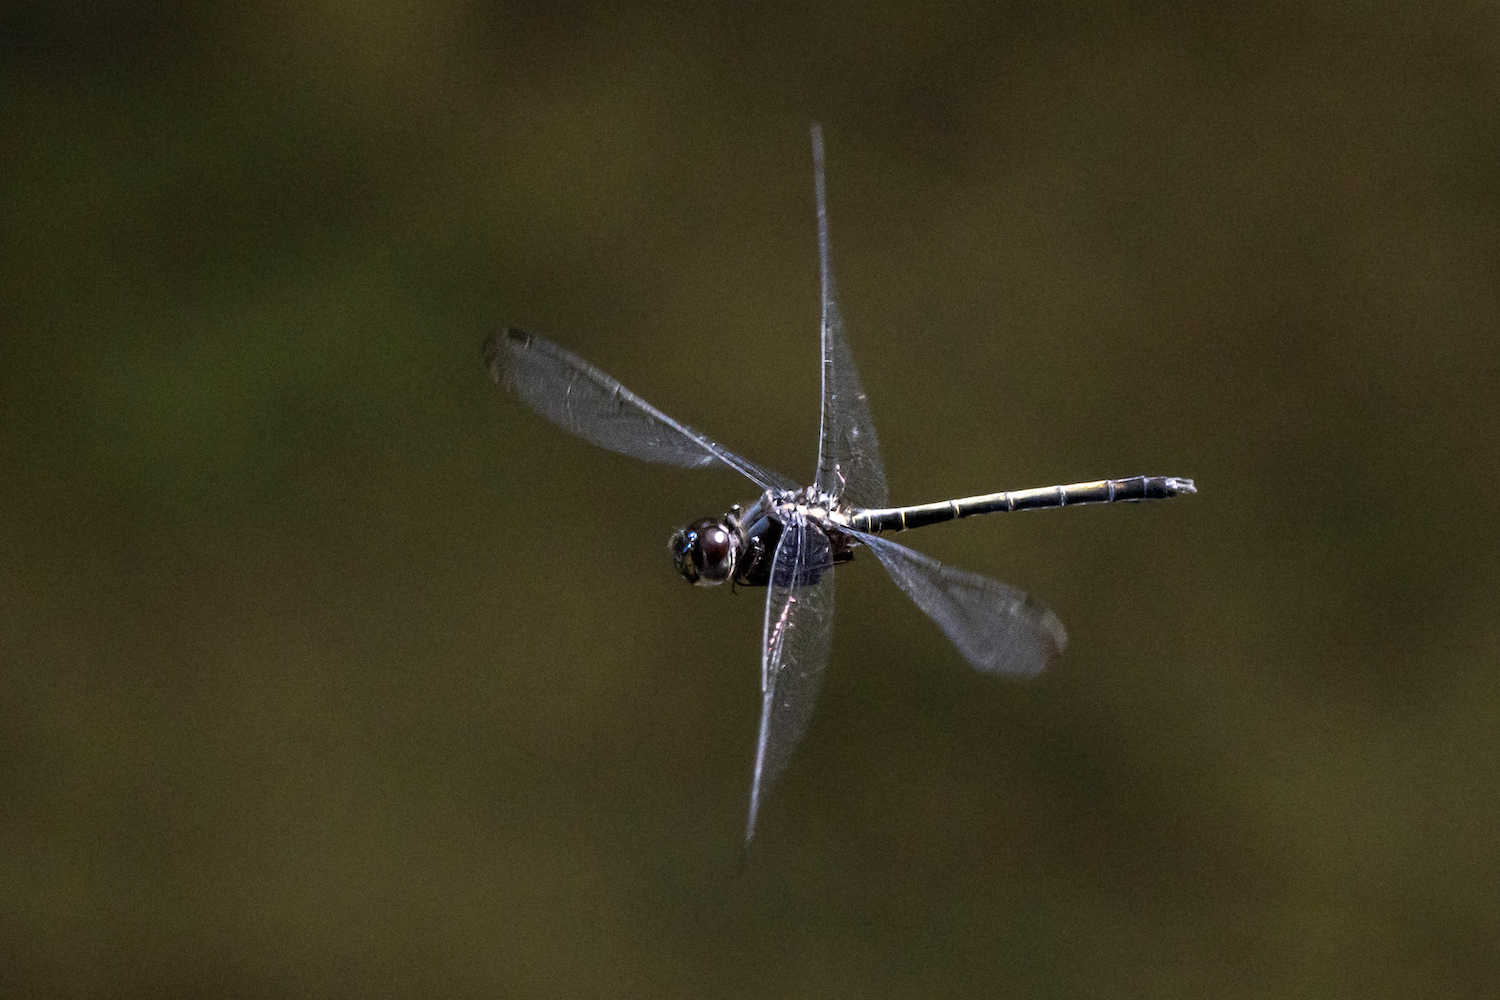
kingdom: Animalia
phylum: Arthropoda
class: Insecta
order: Odonata
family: Libellulidae
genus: Zygonyx
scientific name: Zygonyx iris
